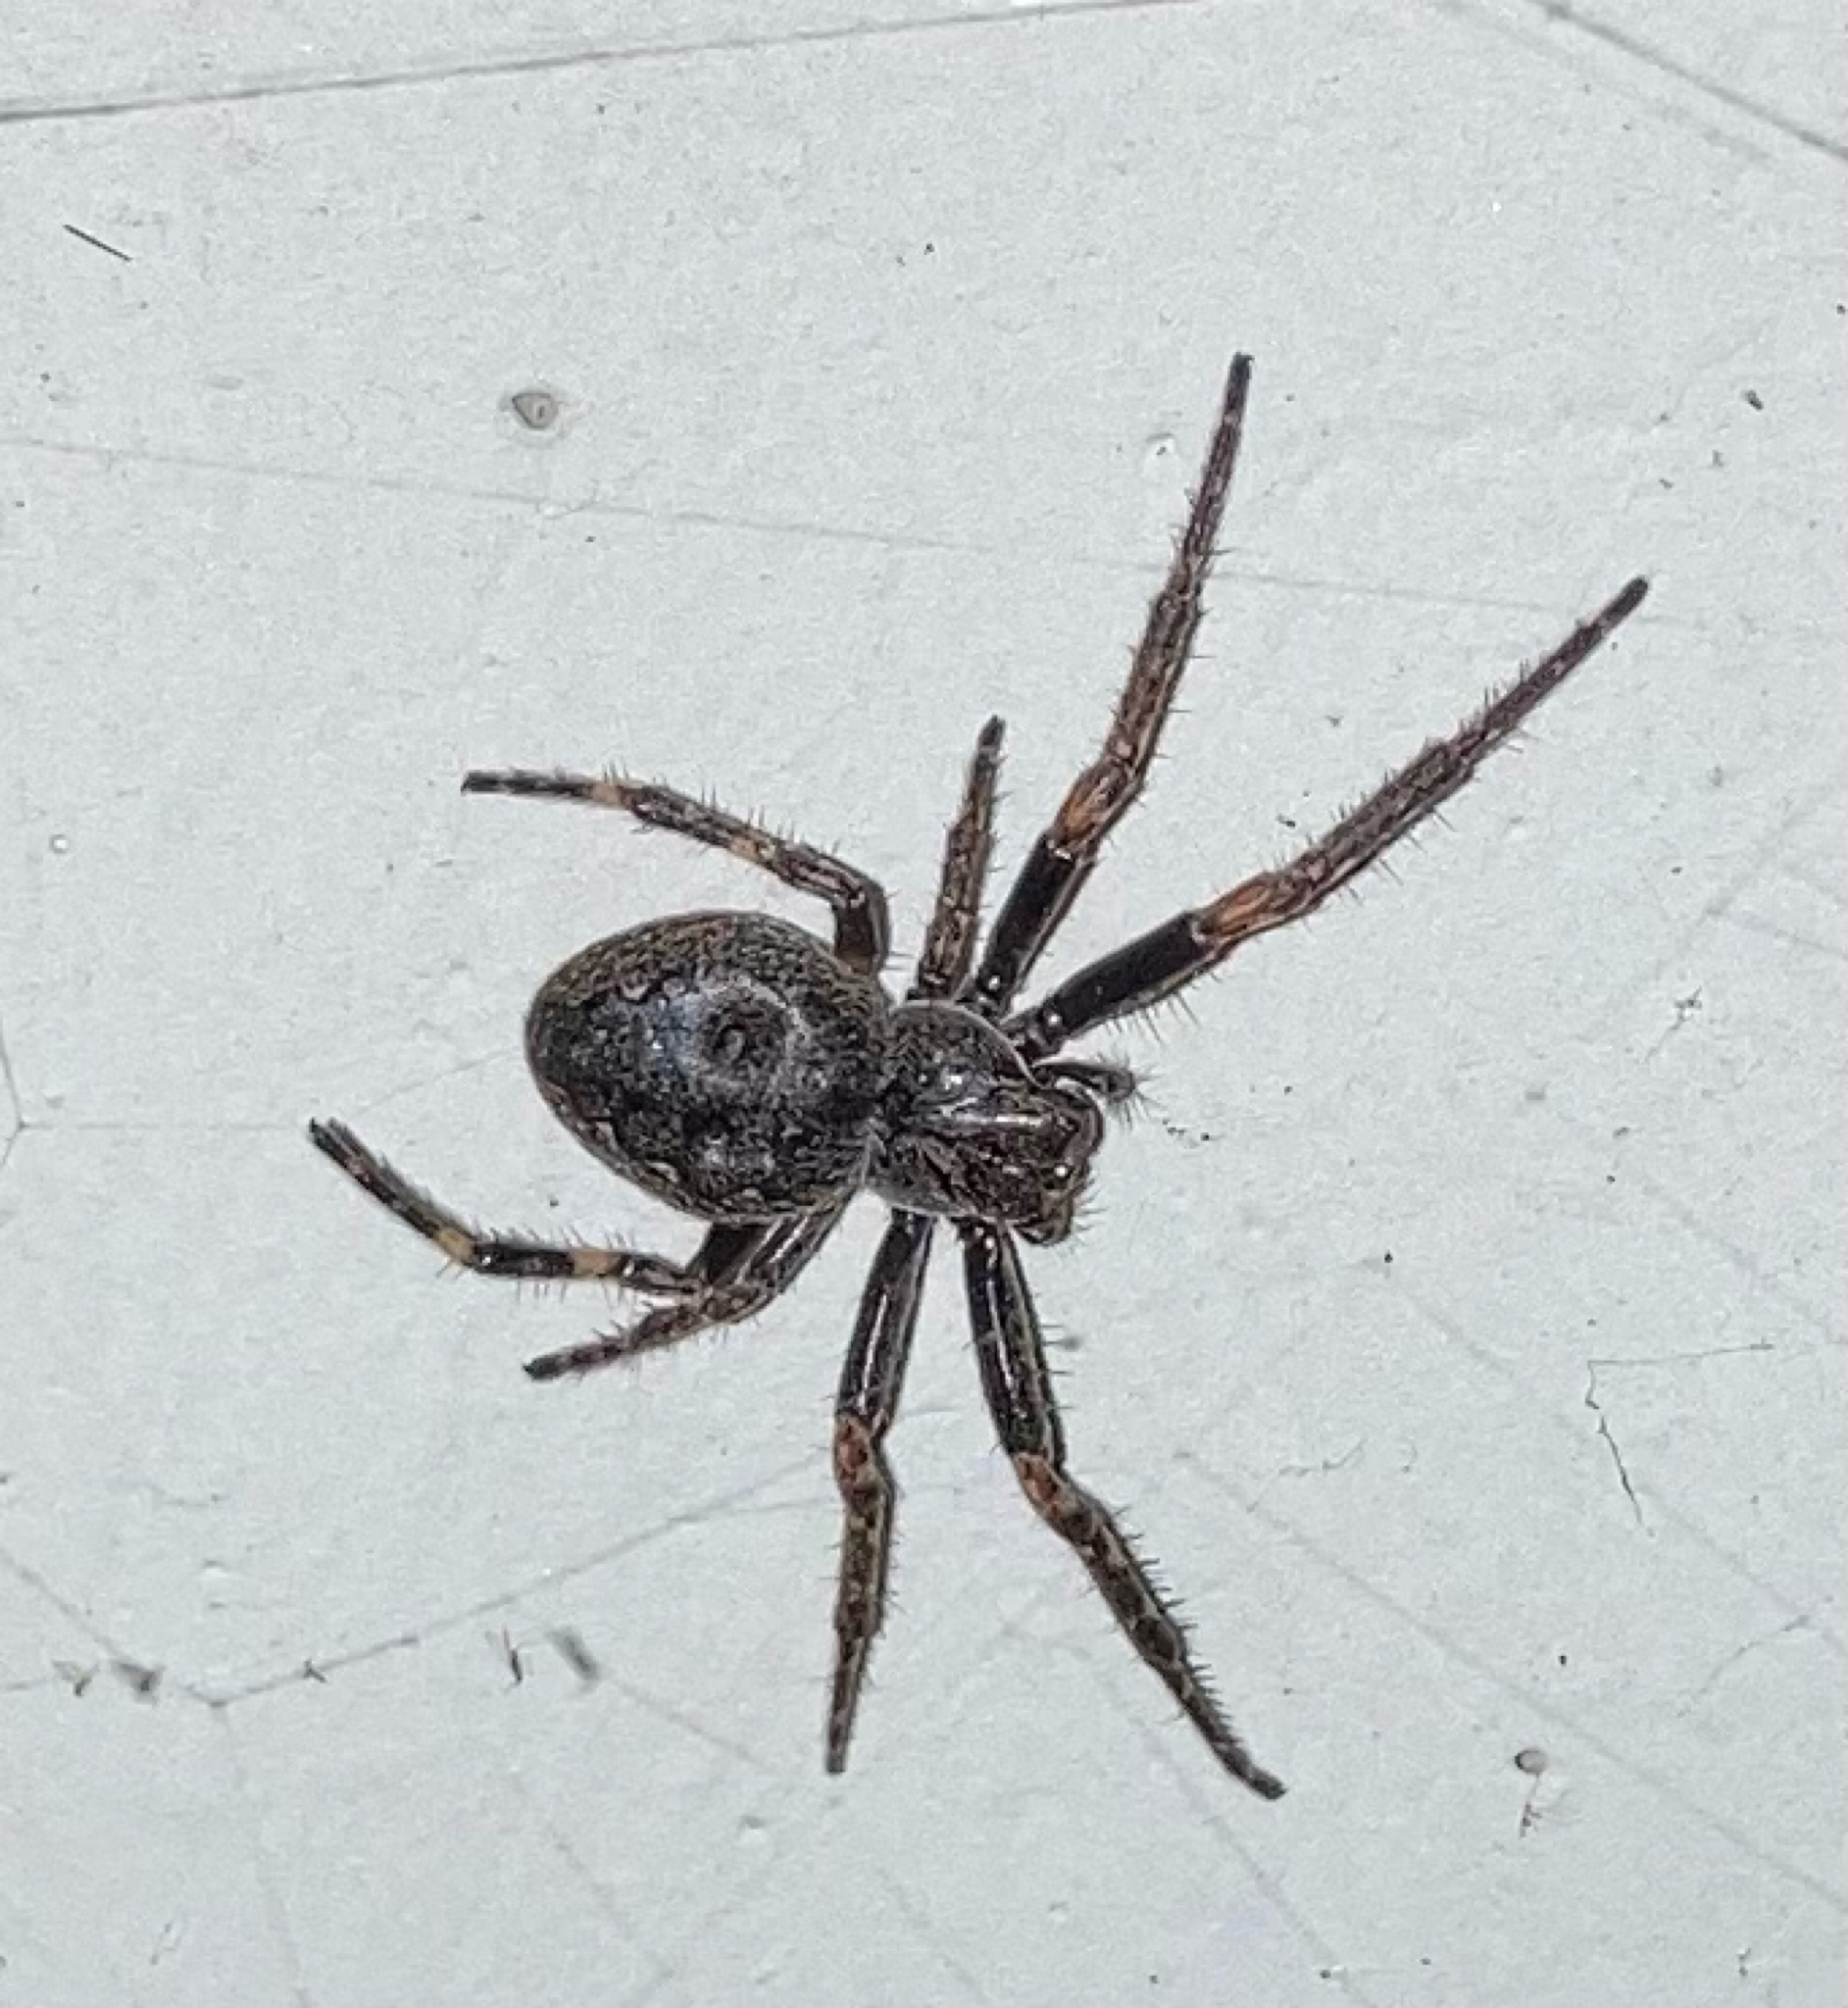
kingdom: Animalia
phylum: Arthropoda
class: Arachnida
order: Araneae
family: Araneidae
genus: Nuctenea
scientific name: Nuctenea umbratica
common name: Toad spider
